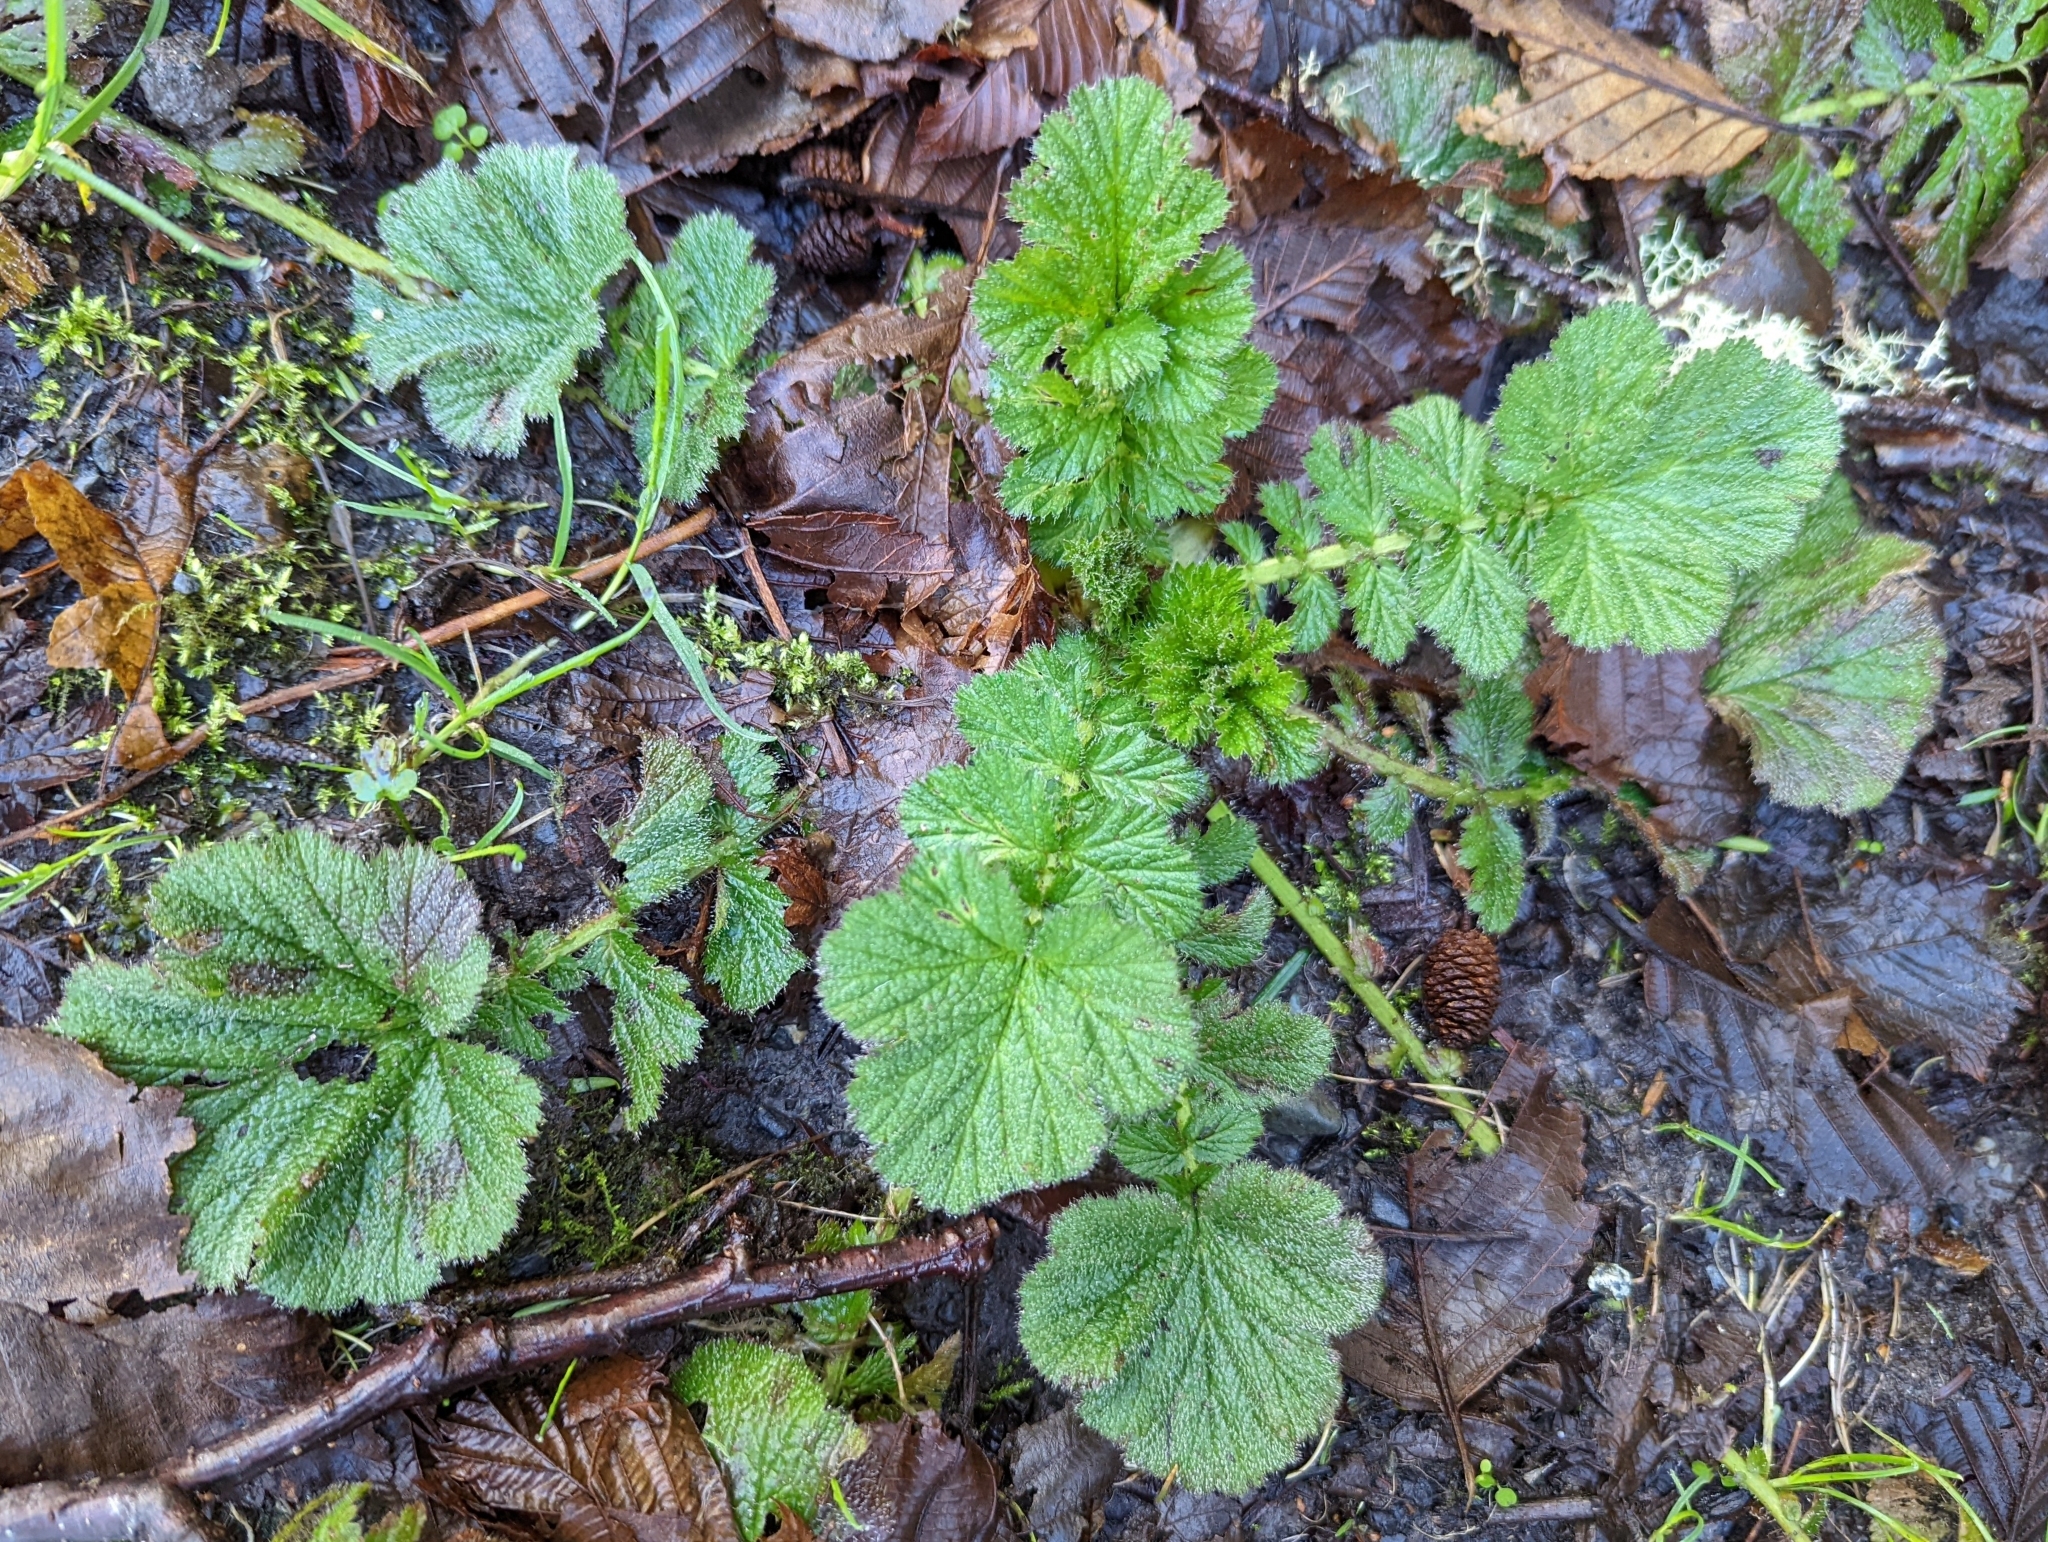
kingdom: Plantae
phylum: Tracheophyta
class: Magnoliopsida
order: Rosales
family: Rosaceae
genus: Geum
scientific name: Geum macrophyllum
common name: Large-leaved avens
